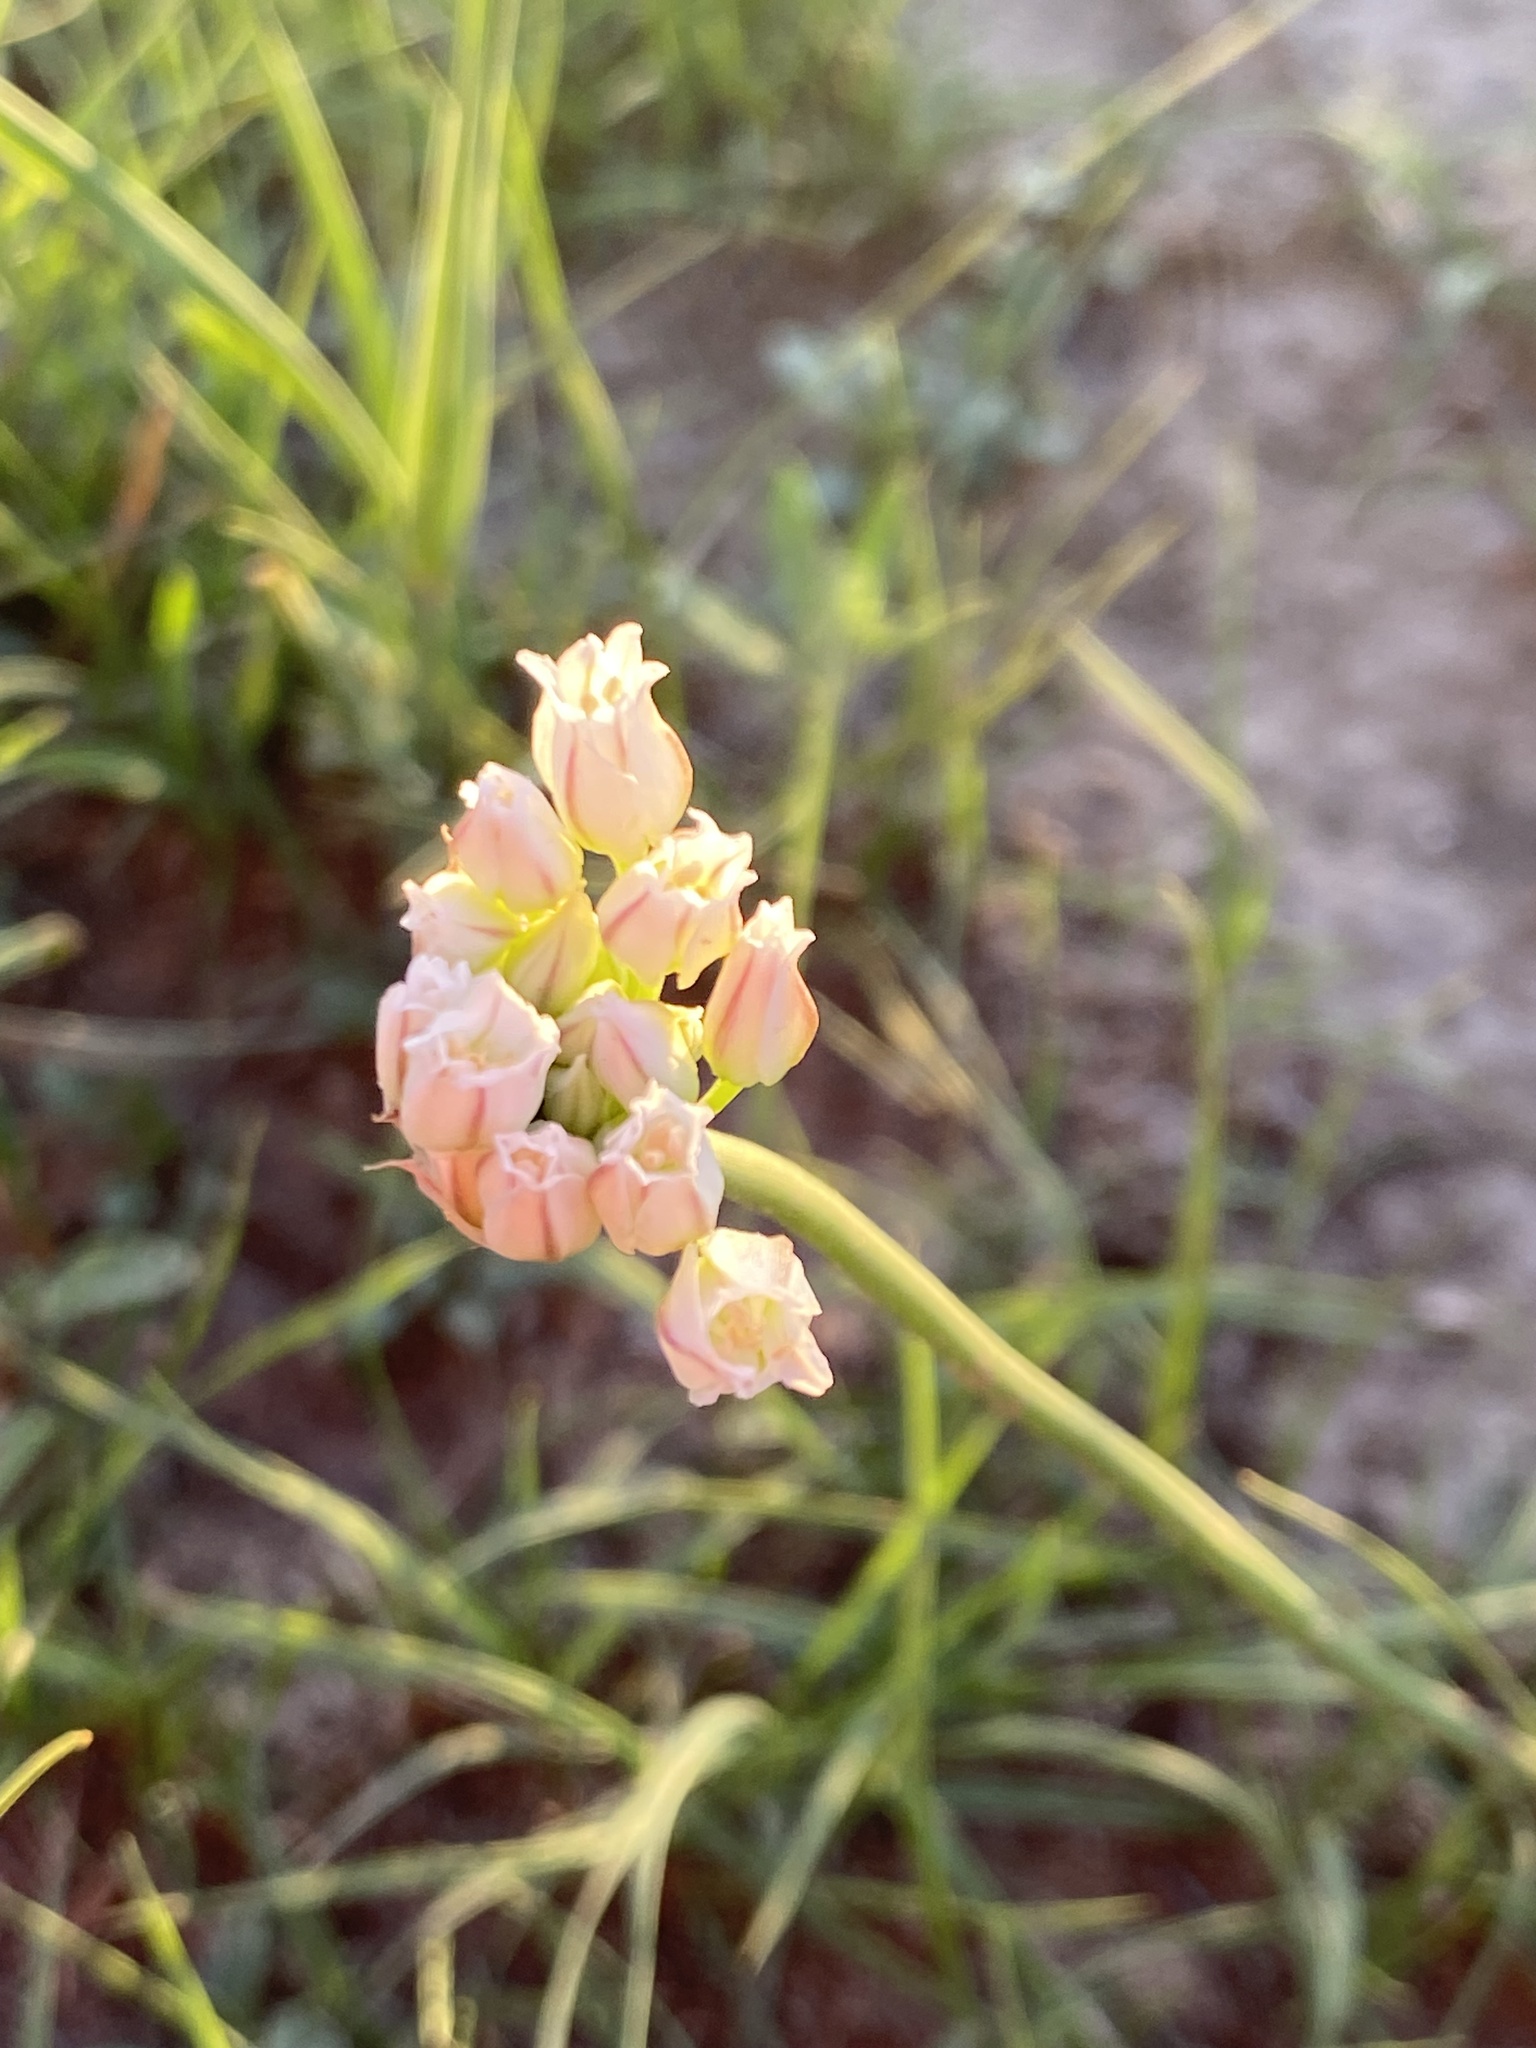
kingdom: Plantae
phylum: Tracheophyta
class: Liliopsida
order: Asparagales
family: Amaryllidaceae
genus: Allium
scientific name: Allium textile
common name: Prairie onion
